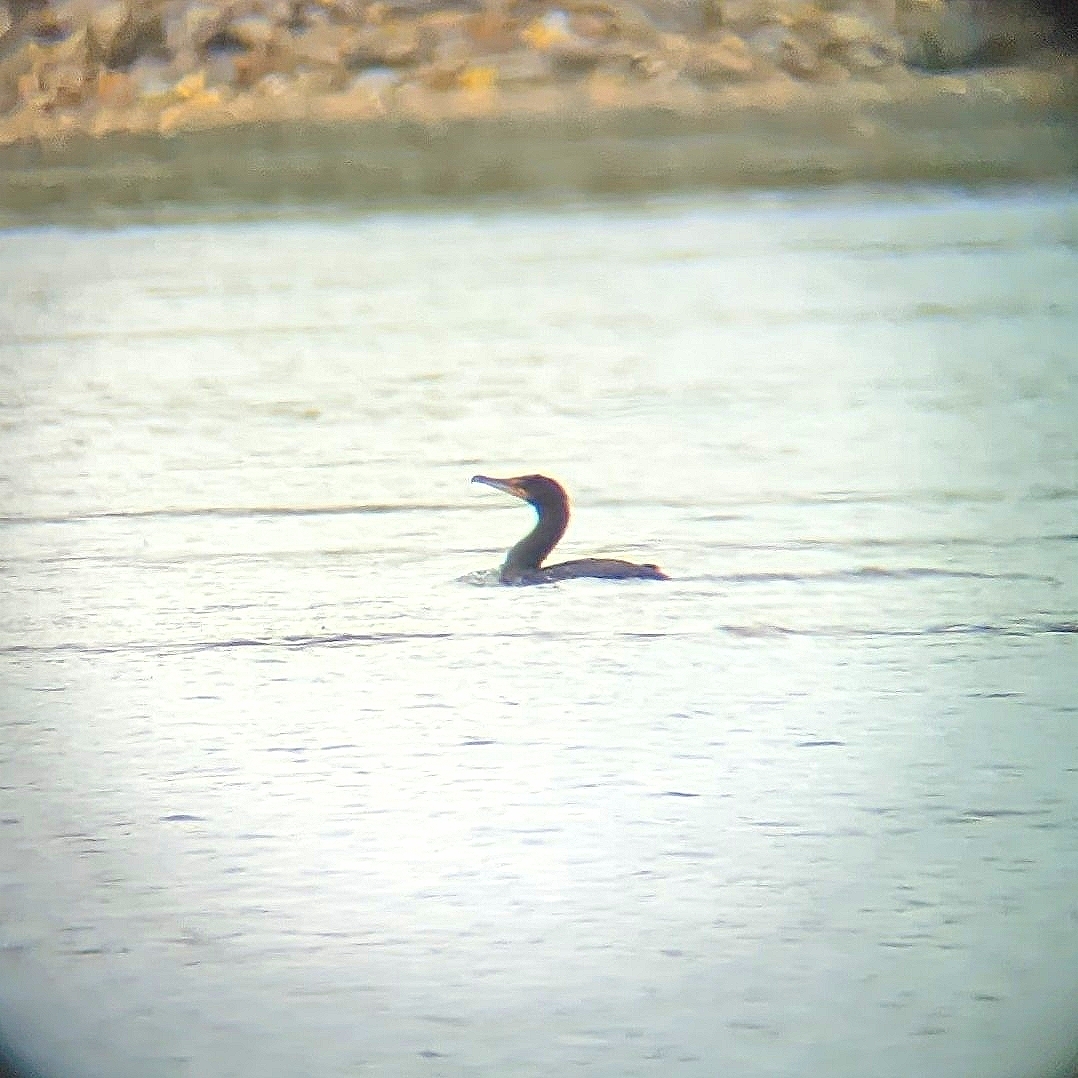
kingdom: Animalia
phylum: Chordata
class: Aves
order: Suliformes
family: Phalacrocoracidae
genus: Phalacrocorax
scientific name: Phalacrocorax auritus
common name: Double-crested cormorant
